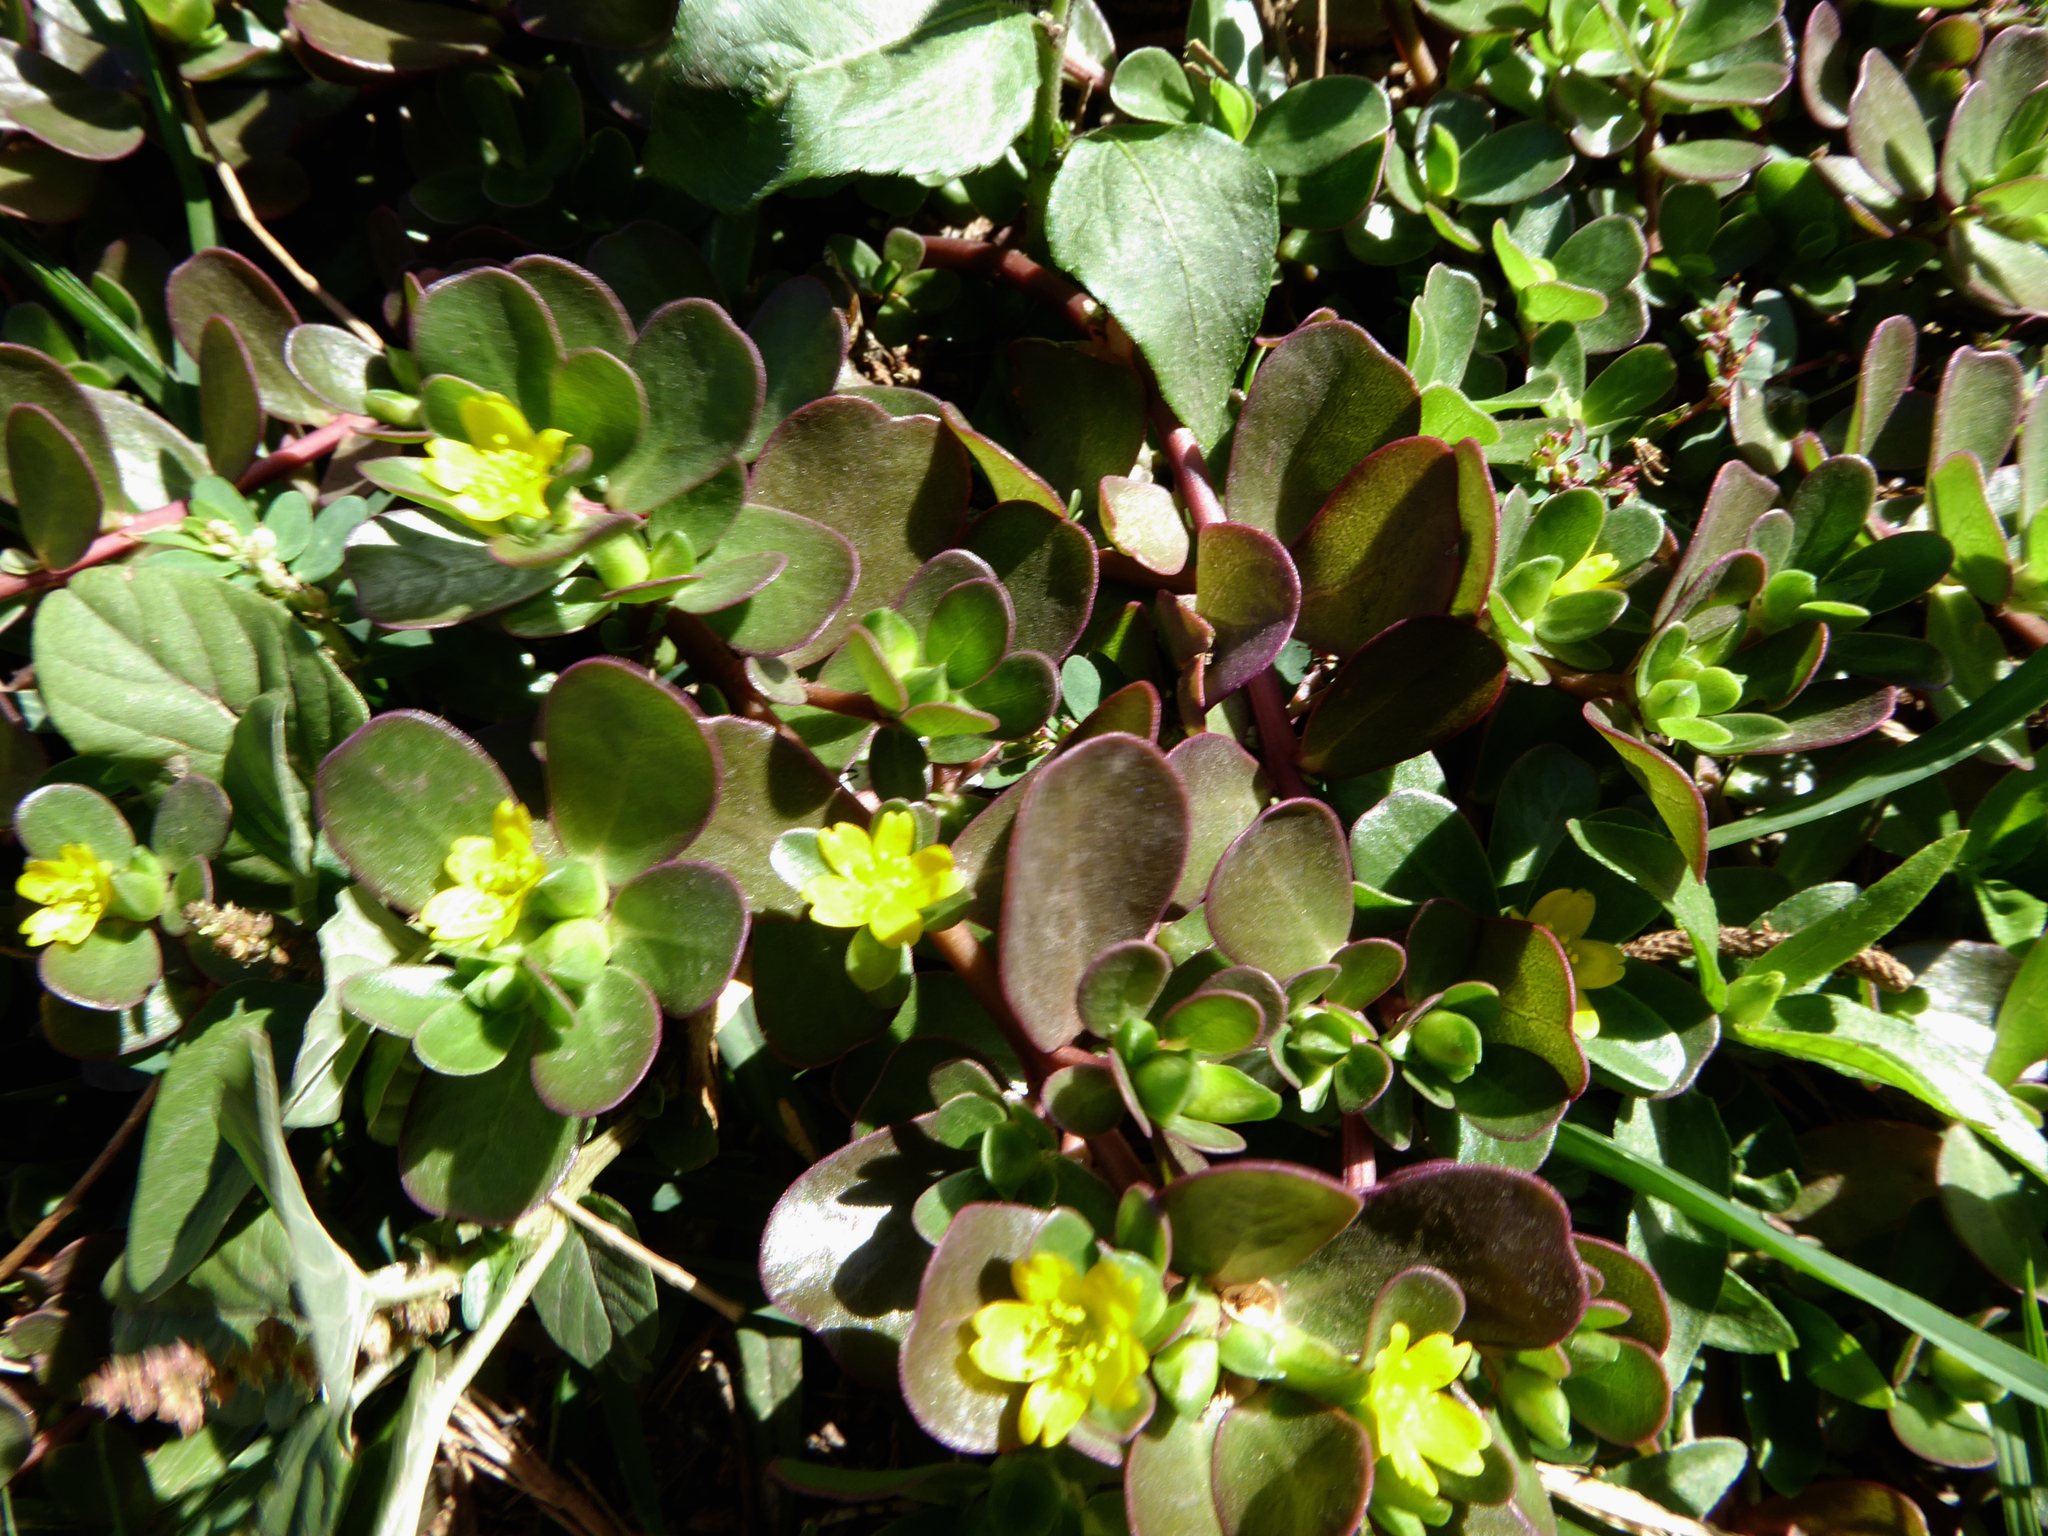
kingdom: Plantae
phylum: Tracheophyta
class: Magnoliopsida
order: Caryophyllales
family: Portulacaceae
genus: Portulaca
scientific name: Portulaca oleracea
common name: Common purslane
